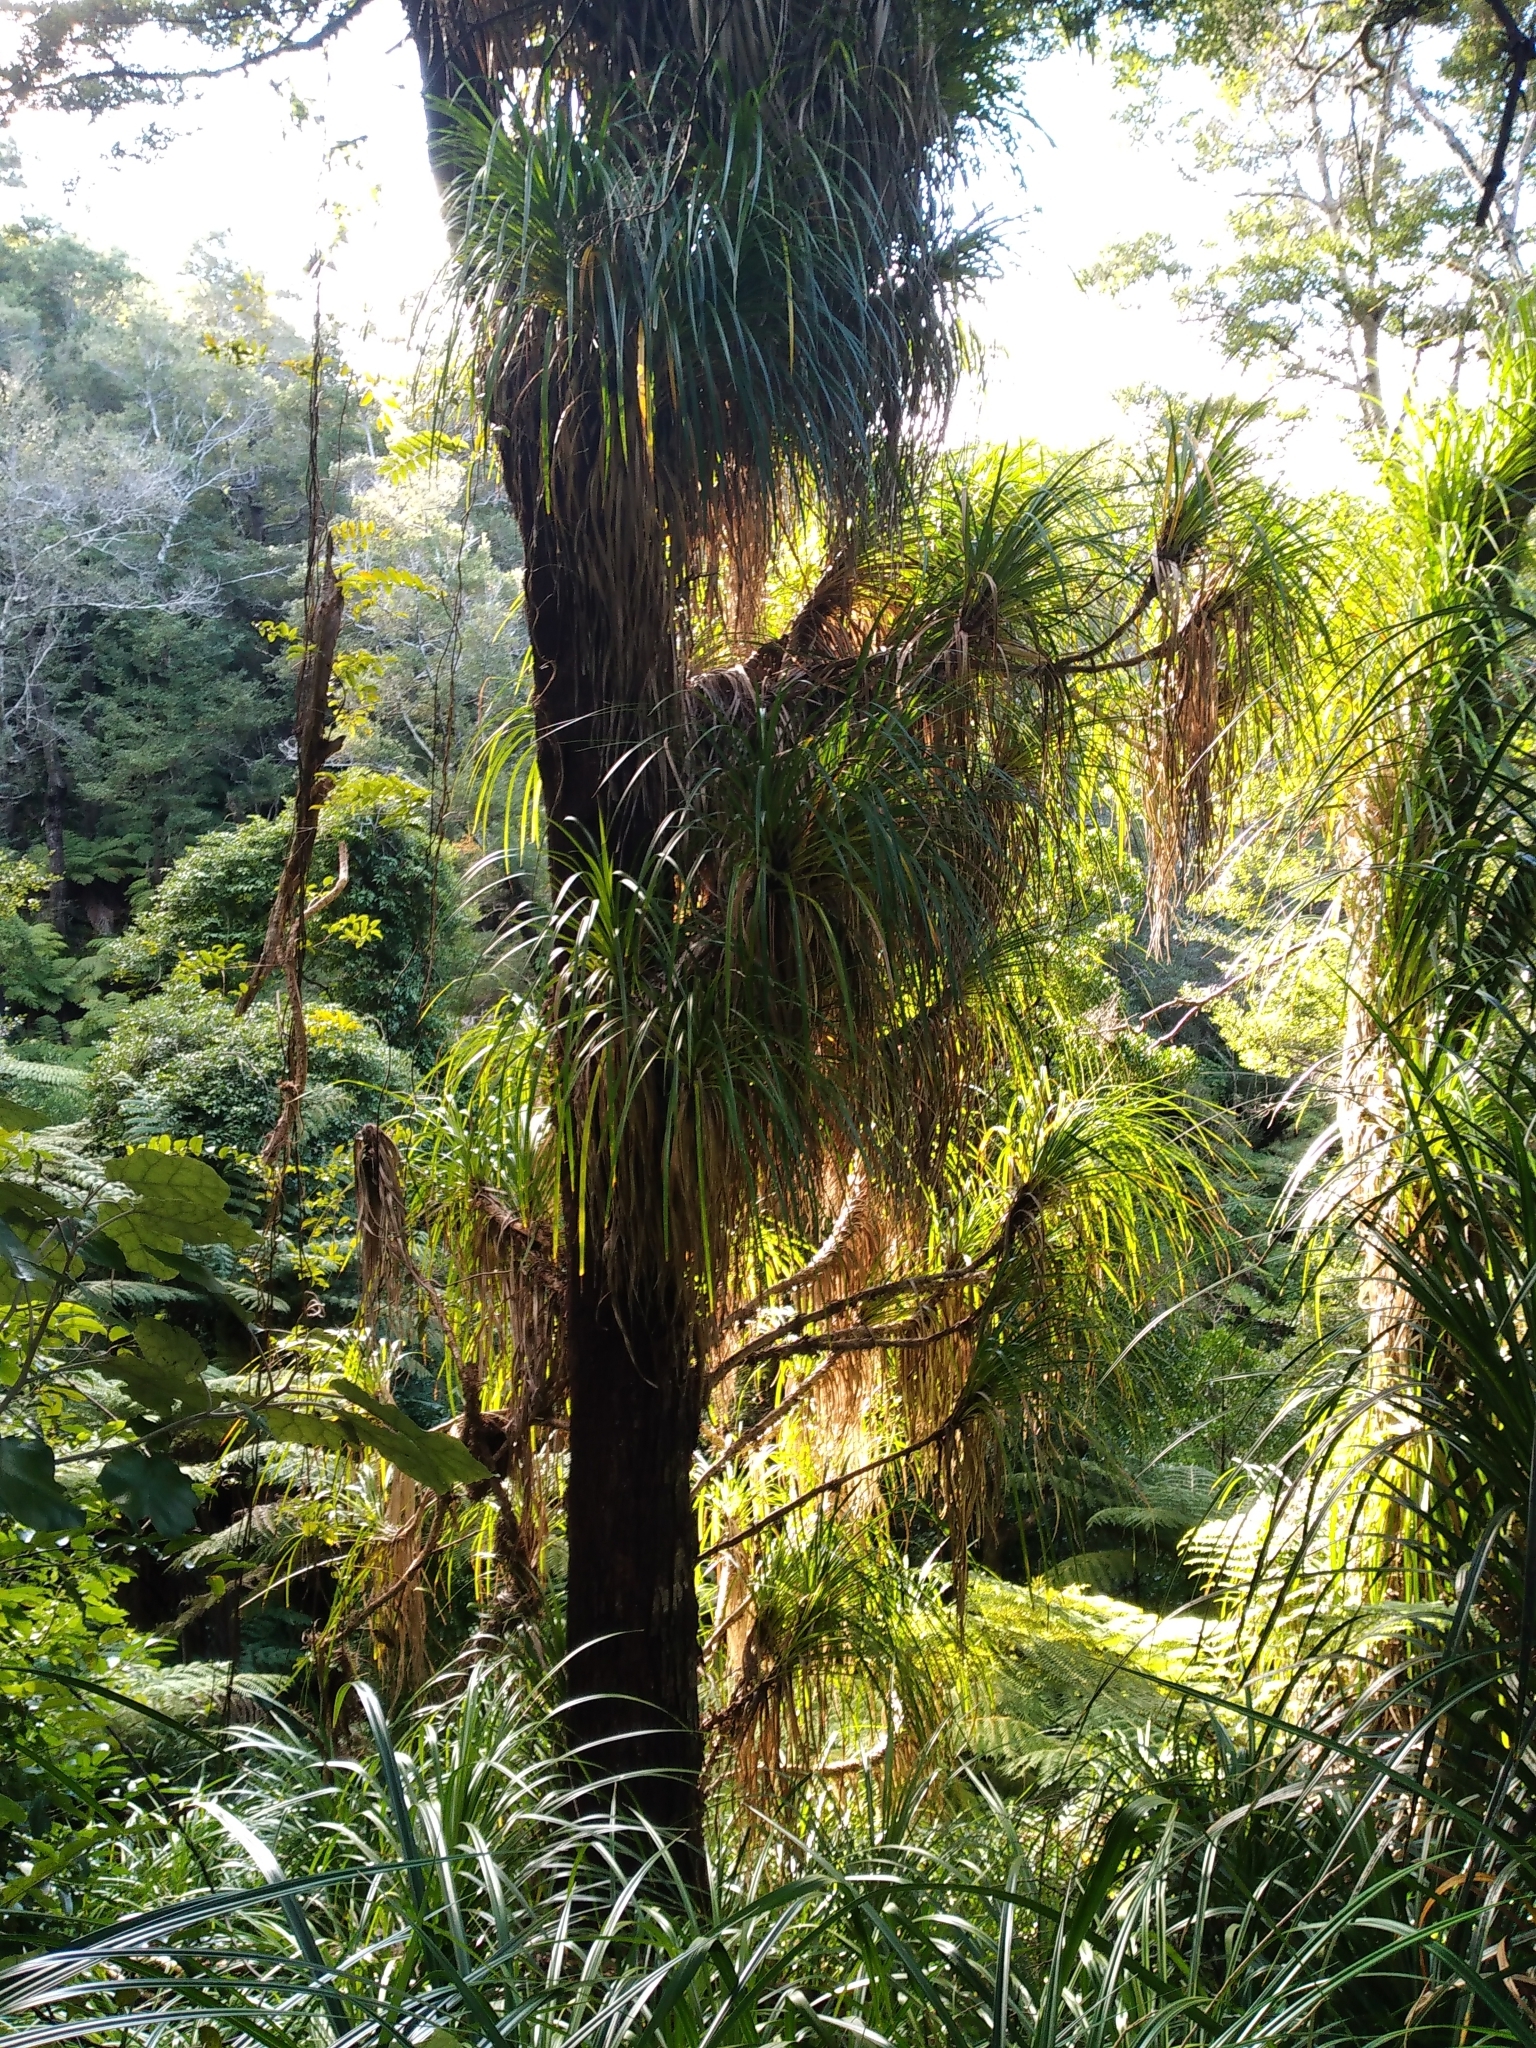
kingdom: Plantae
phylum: Tracheophyta
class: Liliopsida
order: Pandanales
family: Pandanaceae
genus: Freycinetia
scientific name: Freycinetia banksii
